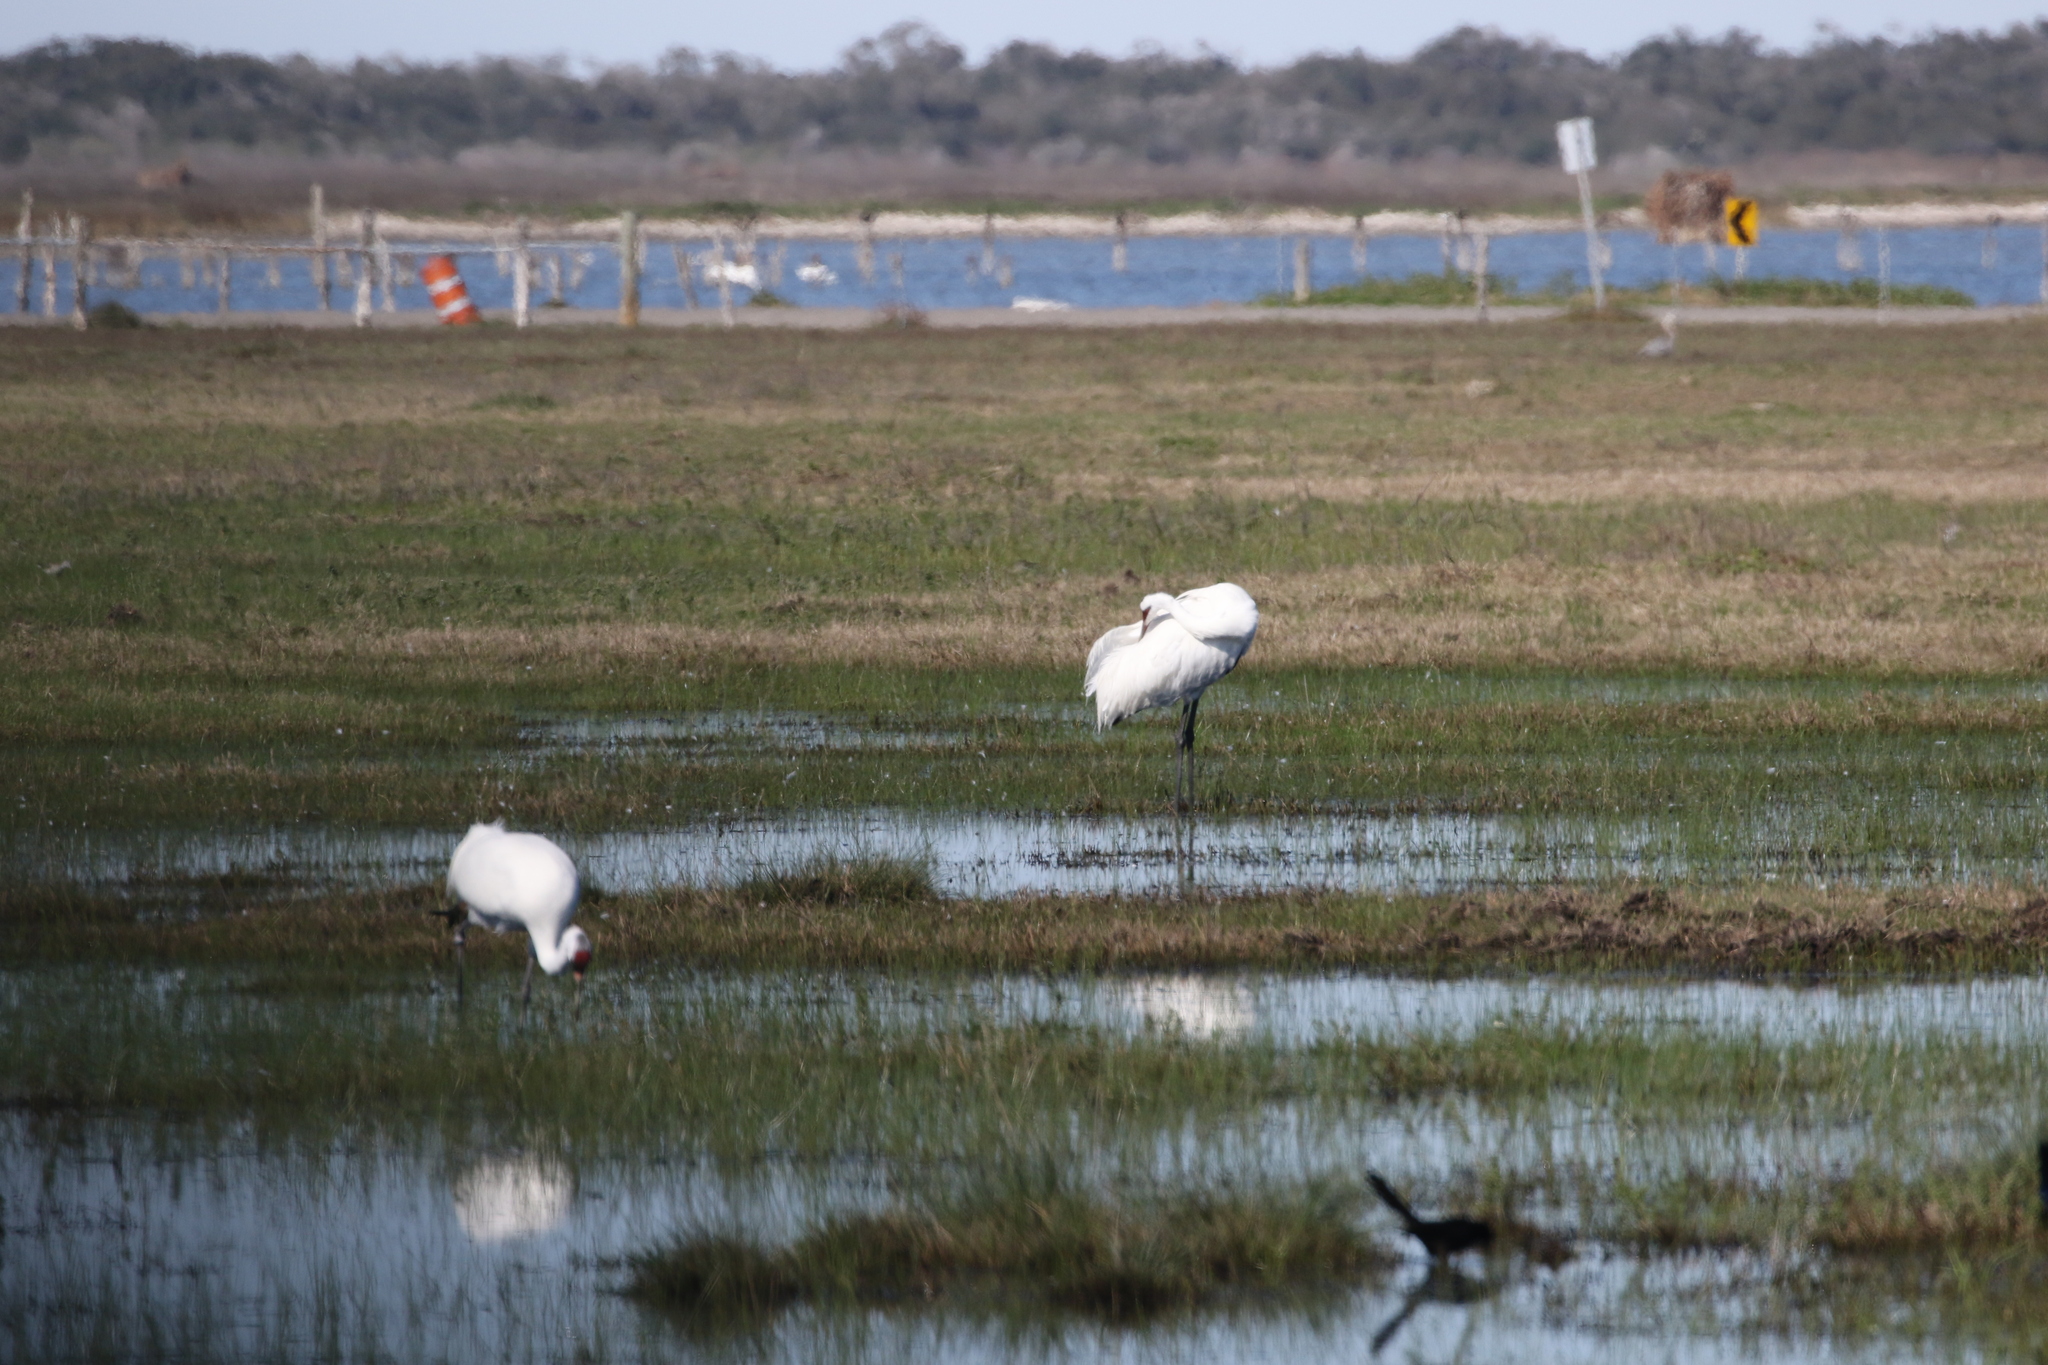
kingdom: Animalia
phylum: Chordata
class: Aves
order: Gruiformes
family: Gruidae
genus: Grus
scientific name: Grus americana
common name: Whooping crane
